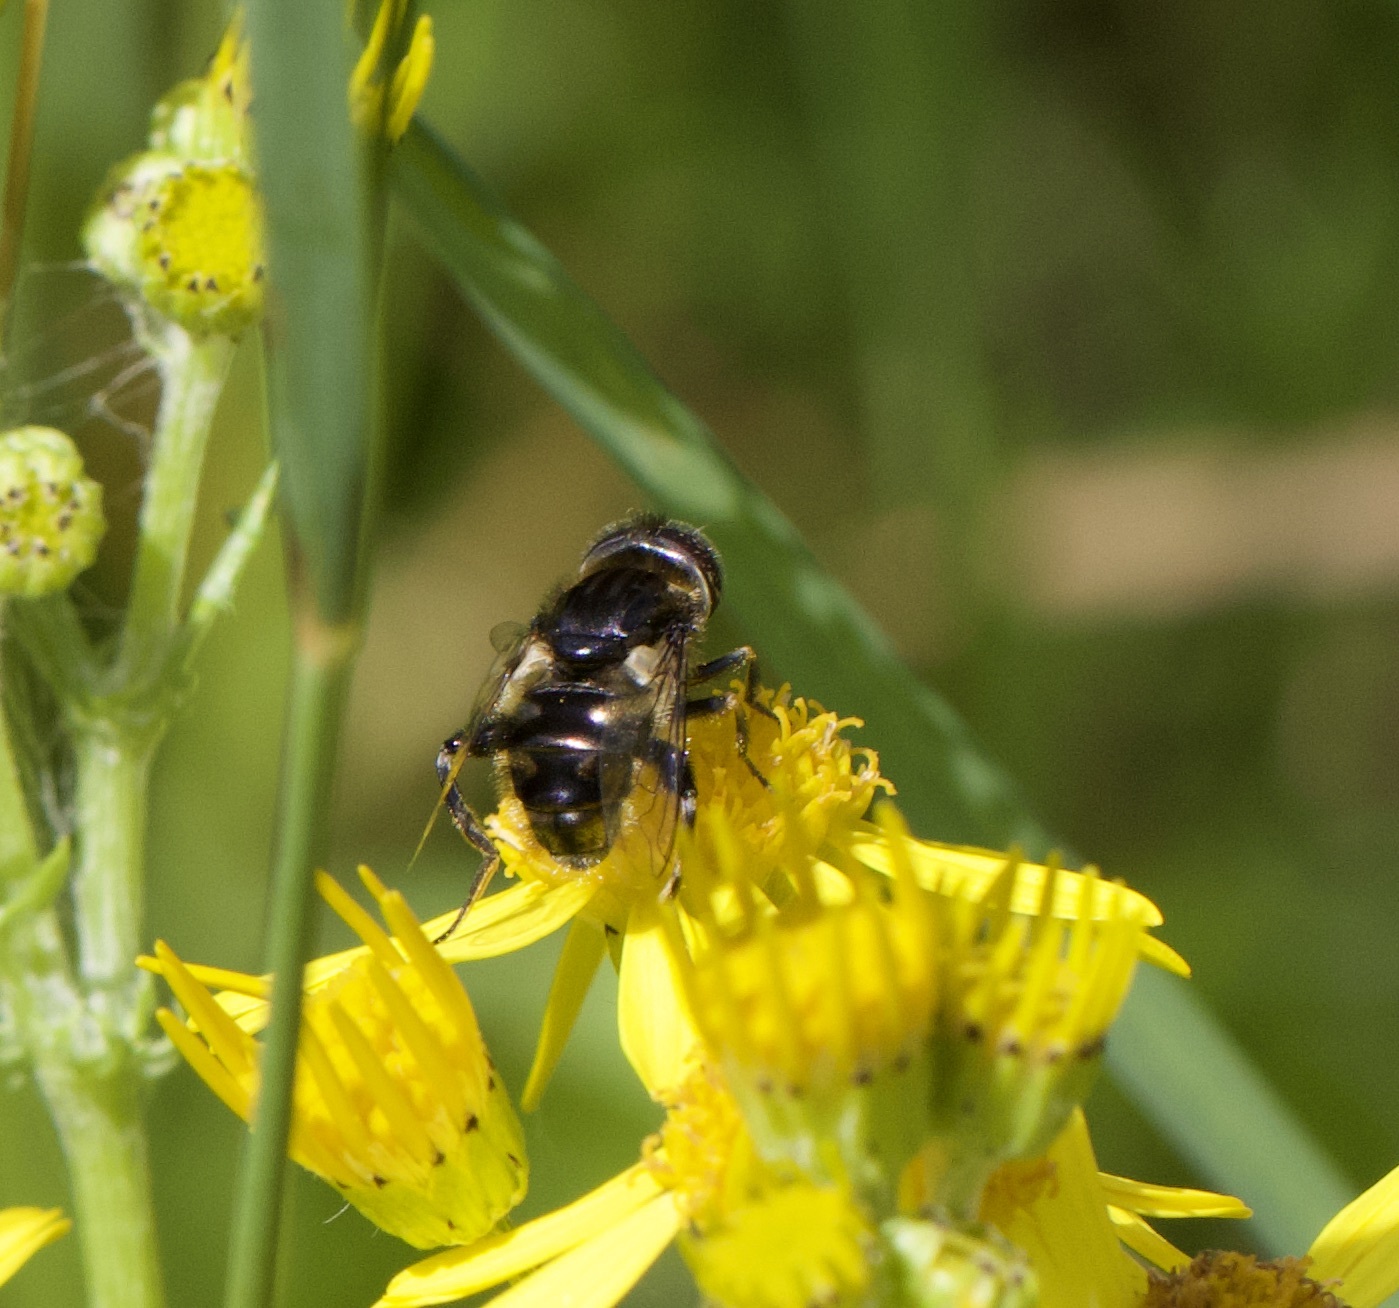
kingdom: Animalia
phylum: Arthropoda
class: Insecta
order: Diptera
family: Syrphidae
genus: Eristalinus
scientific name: Eristalinus sepulchralis
